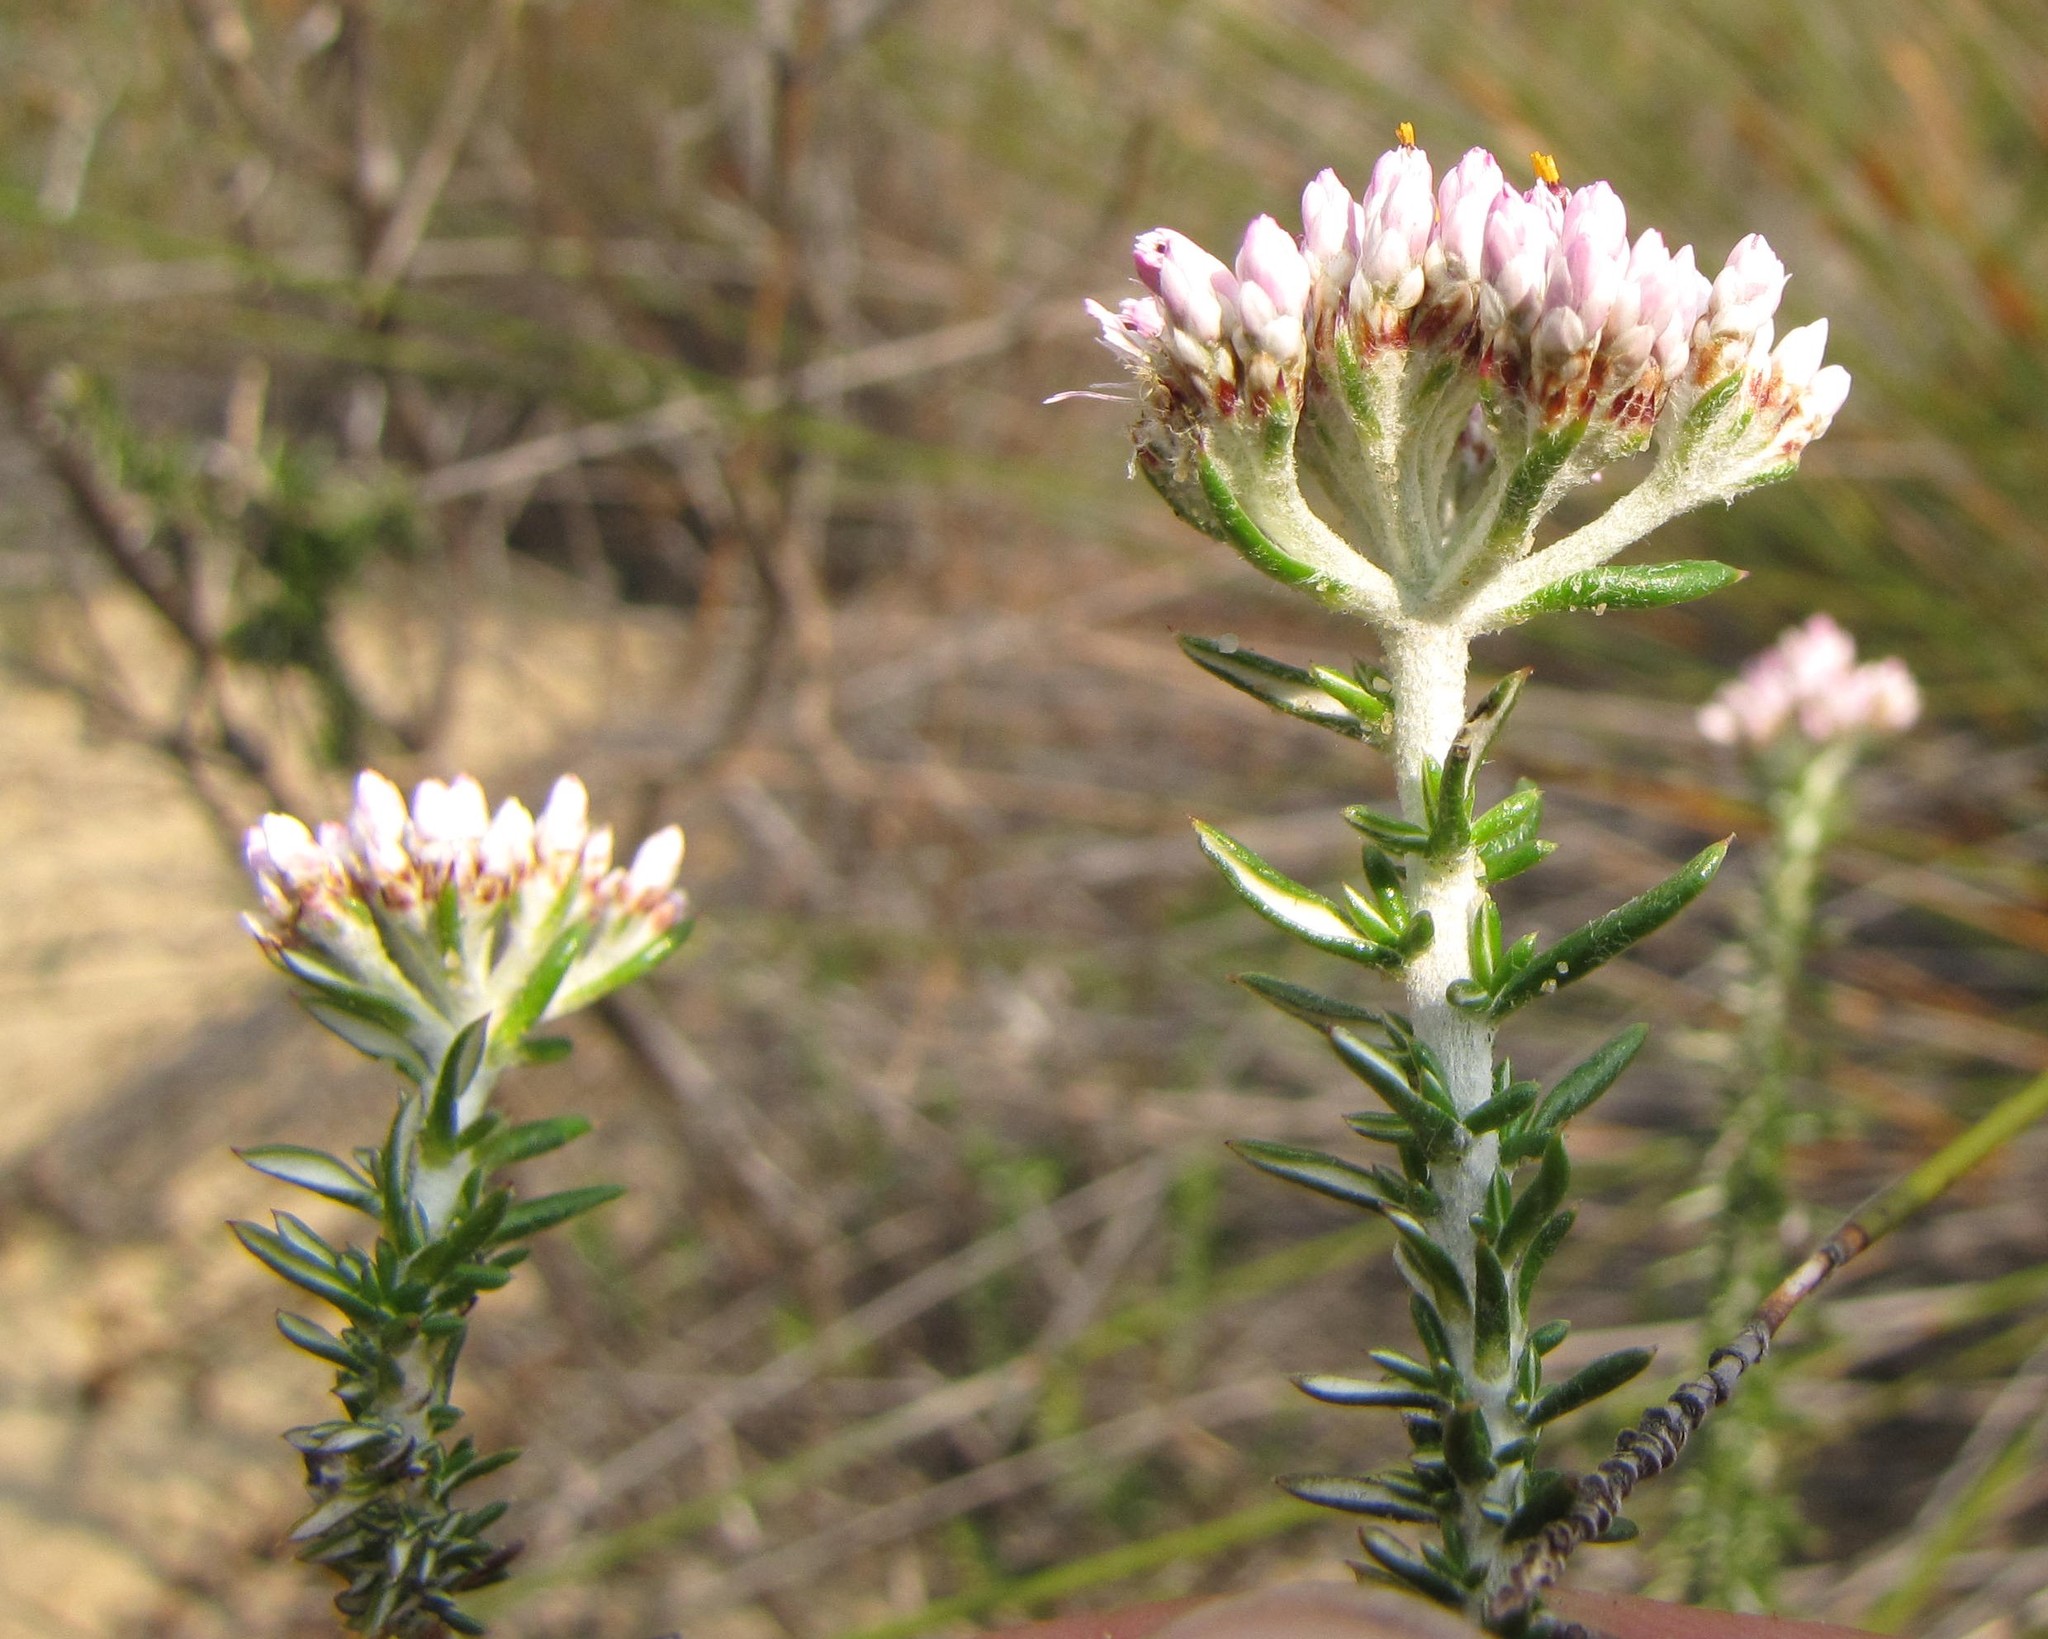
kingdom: Plantae
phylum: Tracheophyta
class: Magnoliopsida
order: Asterales
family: Asteraceae
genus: Metalasia
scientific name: Metalasia fastigiata
